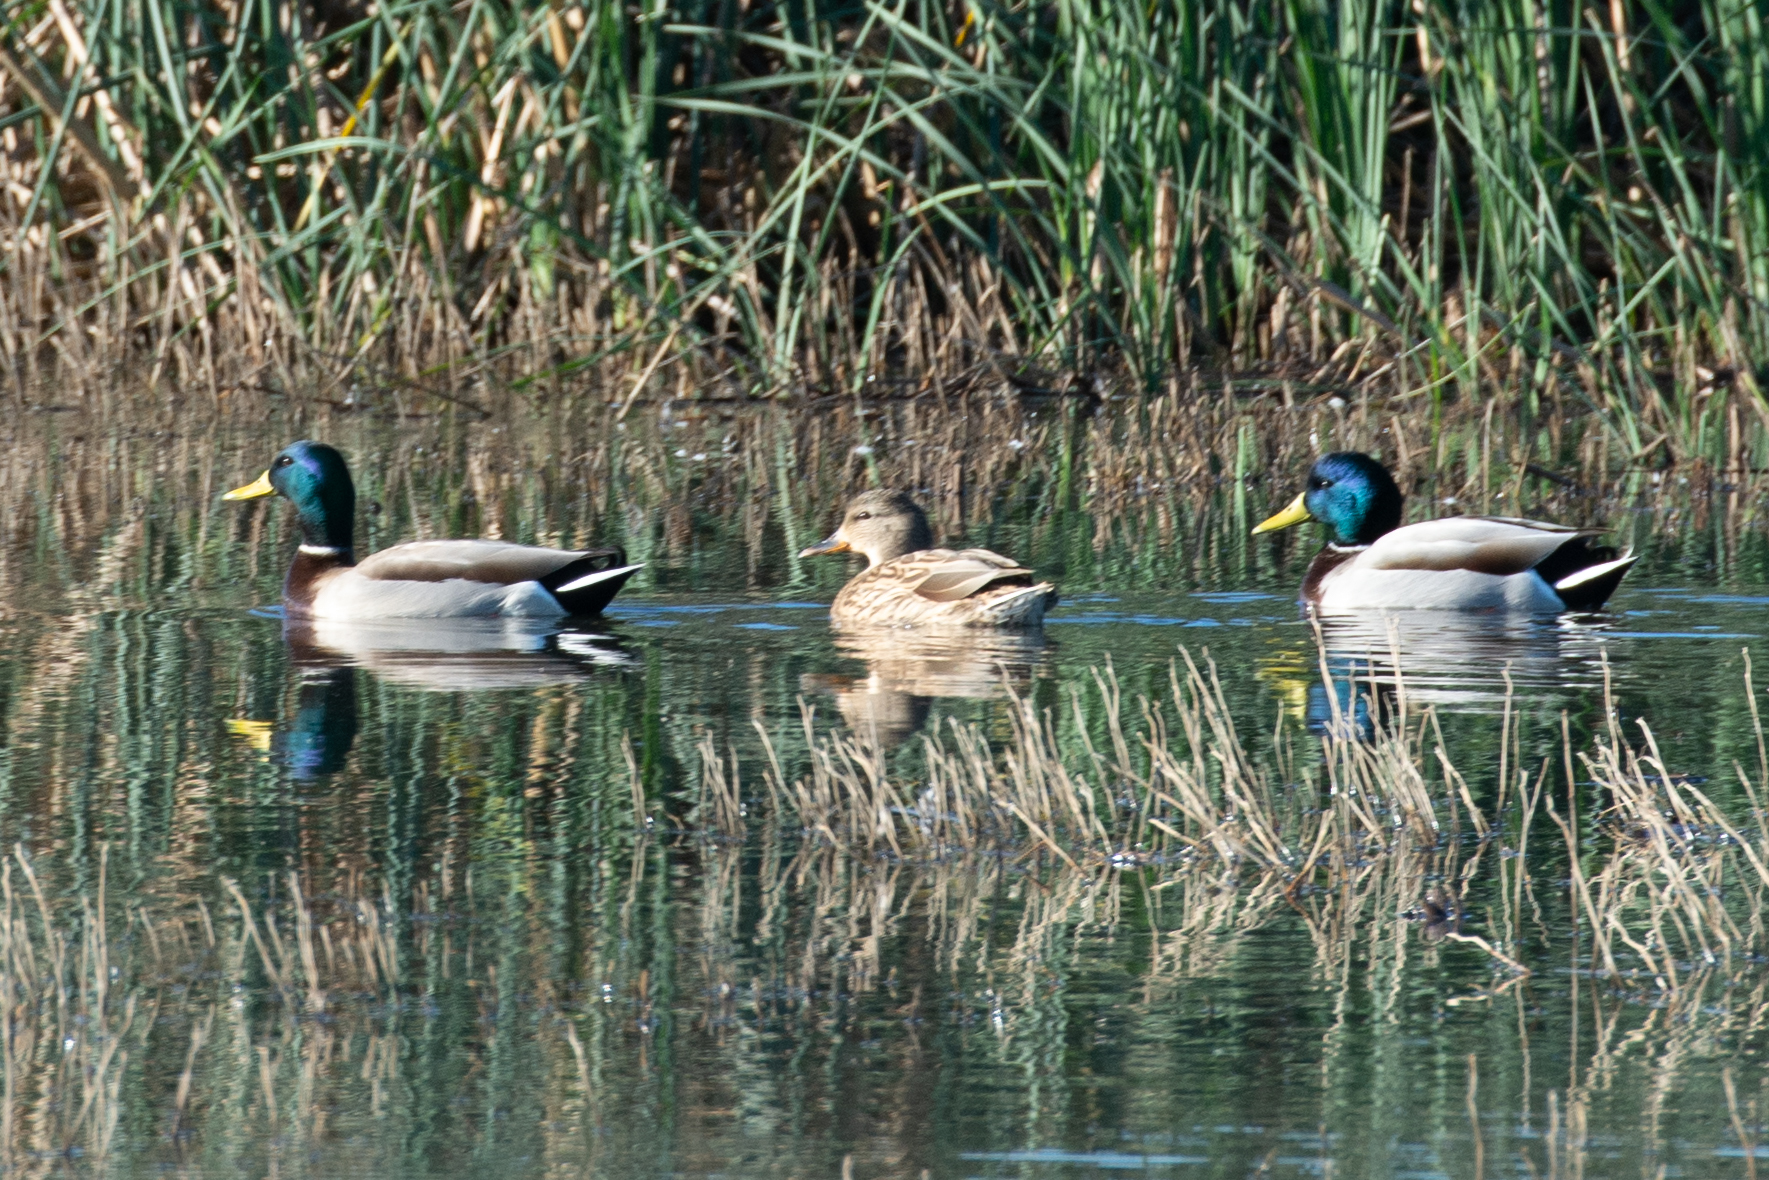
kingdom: Animalia
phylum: Chordata
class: Aves
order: Anseriformes
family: Anatidae
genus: Anas
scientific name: Anas platyrhynchos
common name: Mallard
